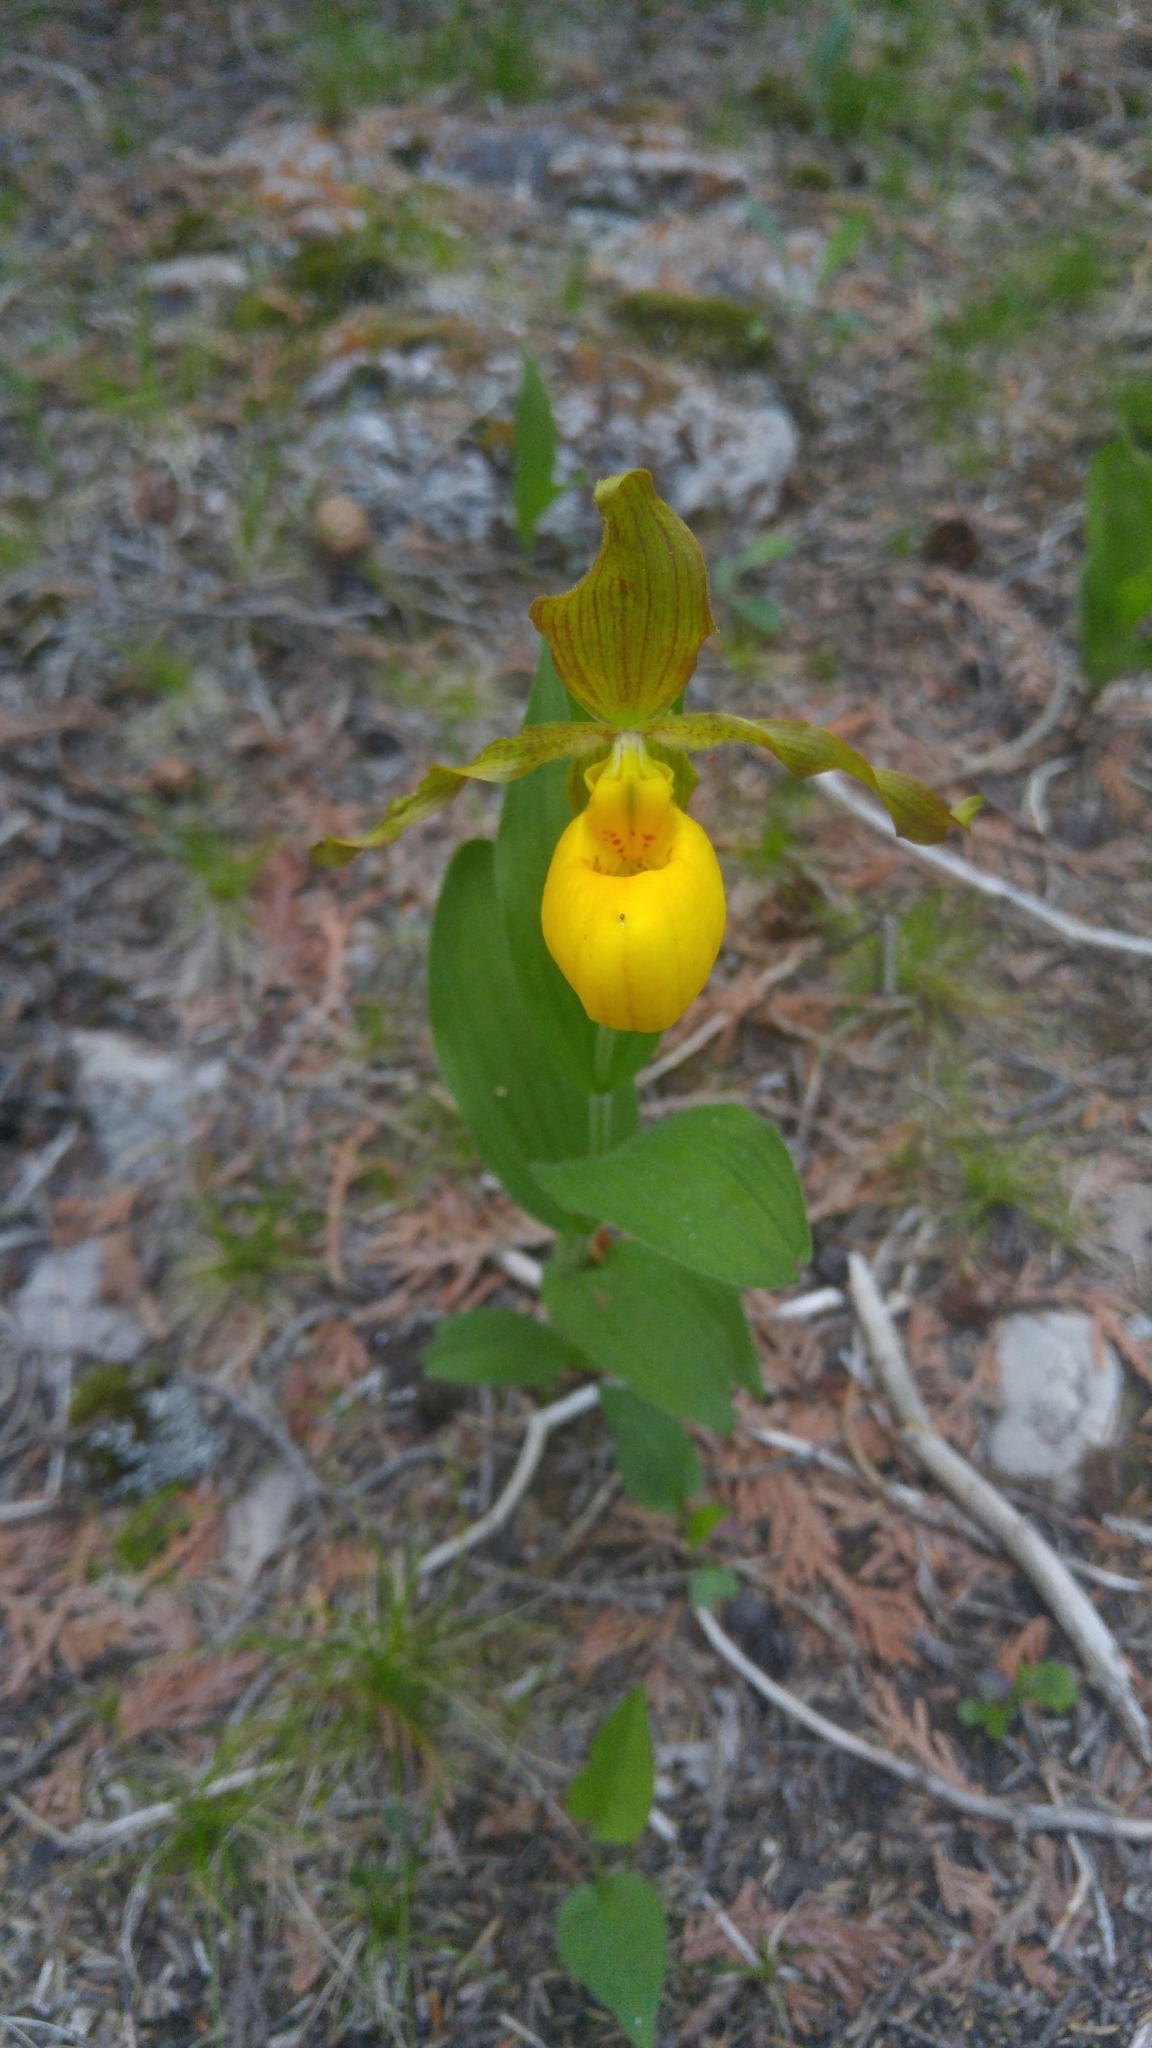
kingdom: Plantae
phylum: Tracheophyta
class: Liliopsida
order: Asparagales
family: Orchidaceae
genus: Cypripedium
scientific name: Cypripedium parviflorum
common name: American yellow lady's-slipper
